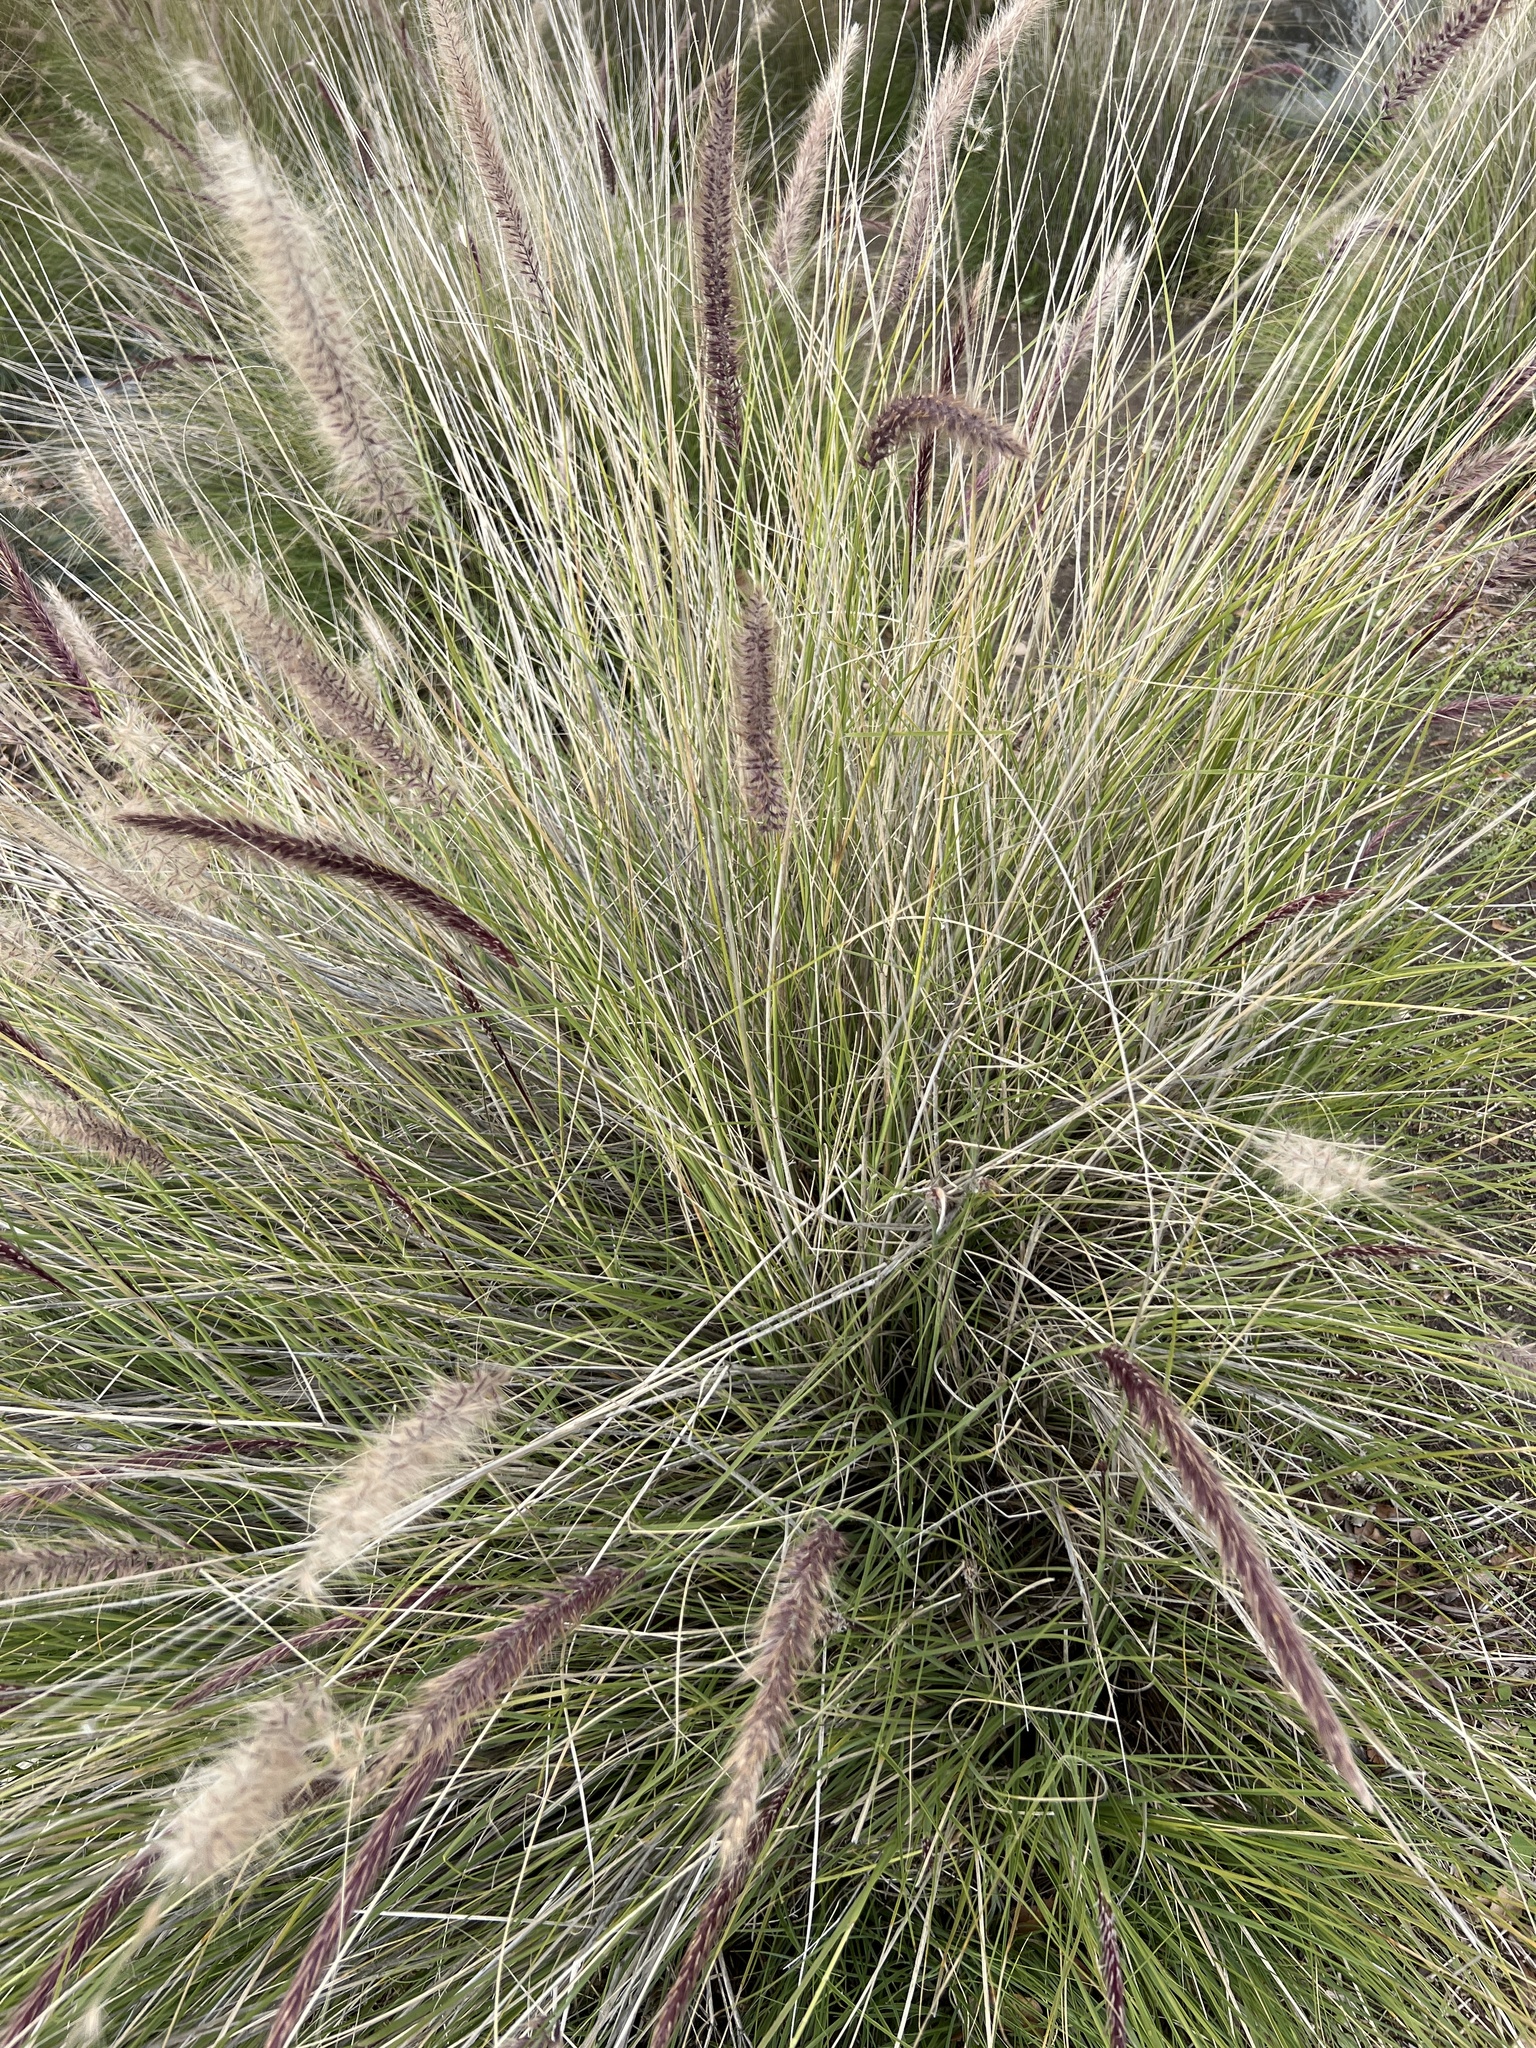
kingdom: Plantae
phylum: Tracheophyta
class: Liliopsida
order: Poales
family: Poaceae
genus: Cenchrus
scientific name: Cenchrus setaceus
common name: Crimson fountaingrass
